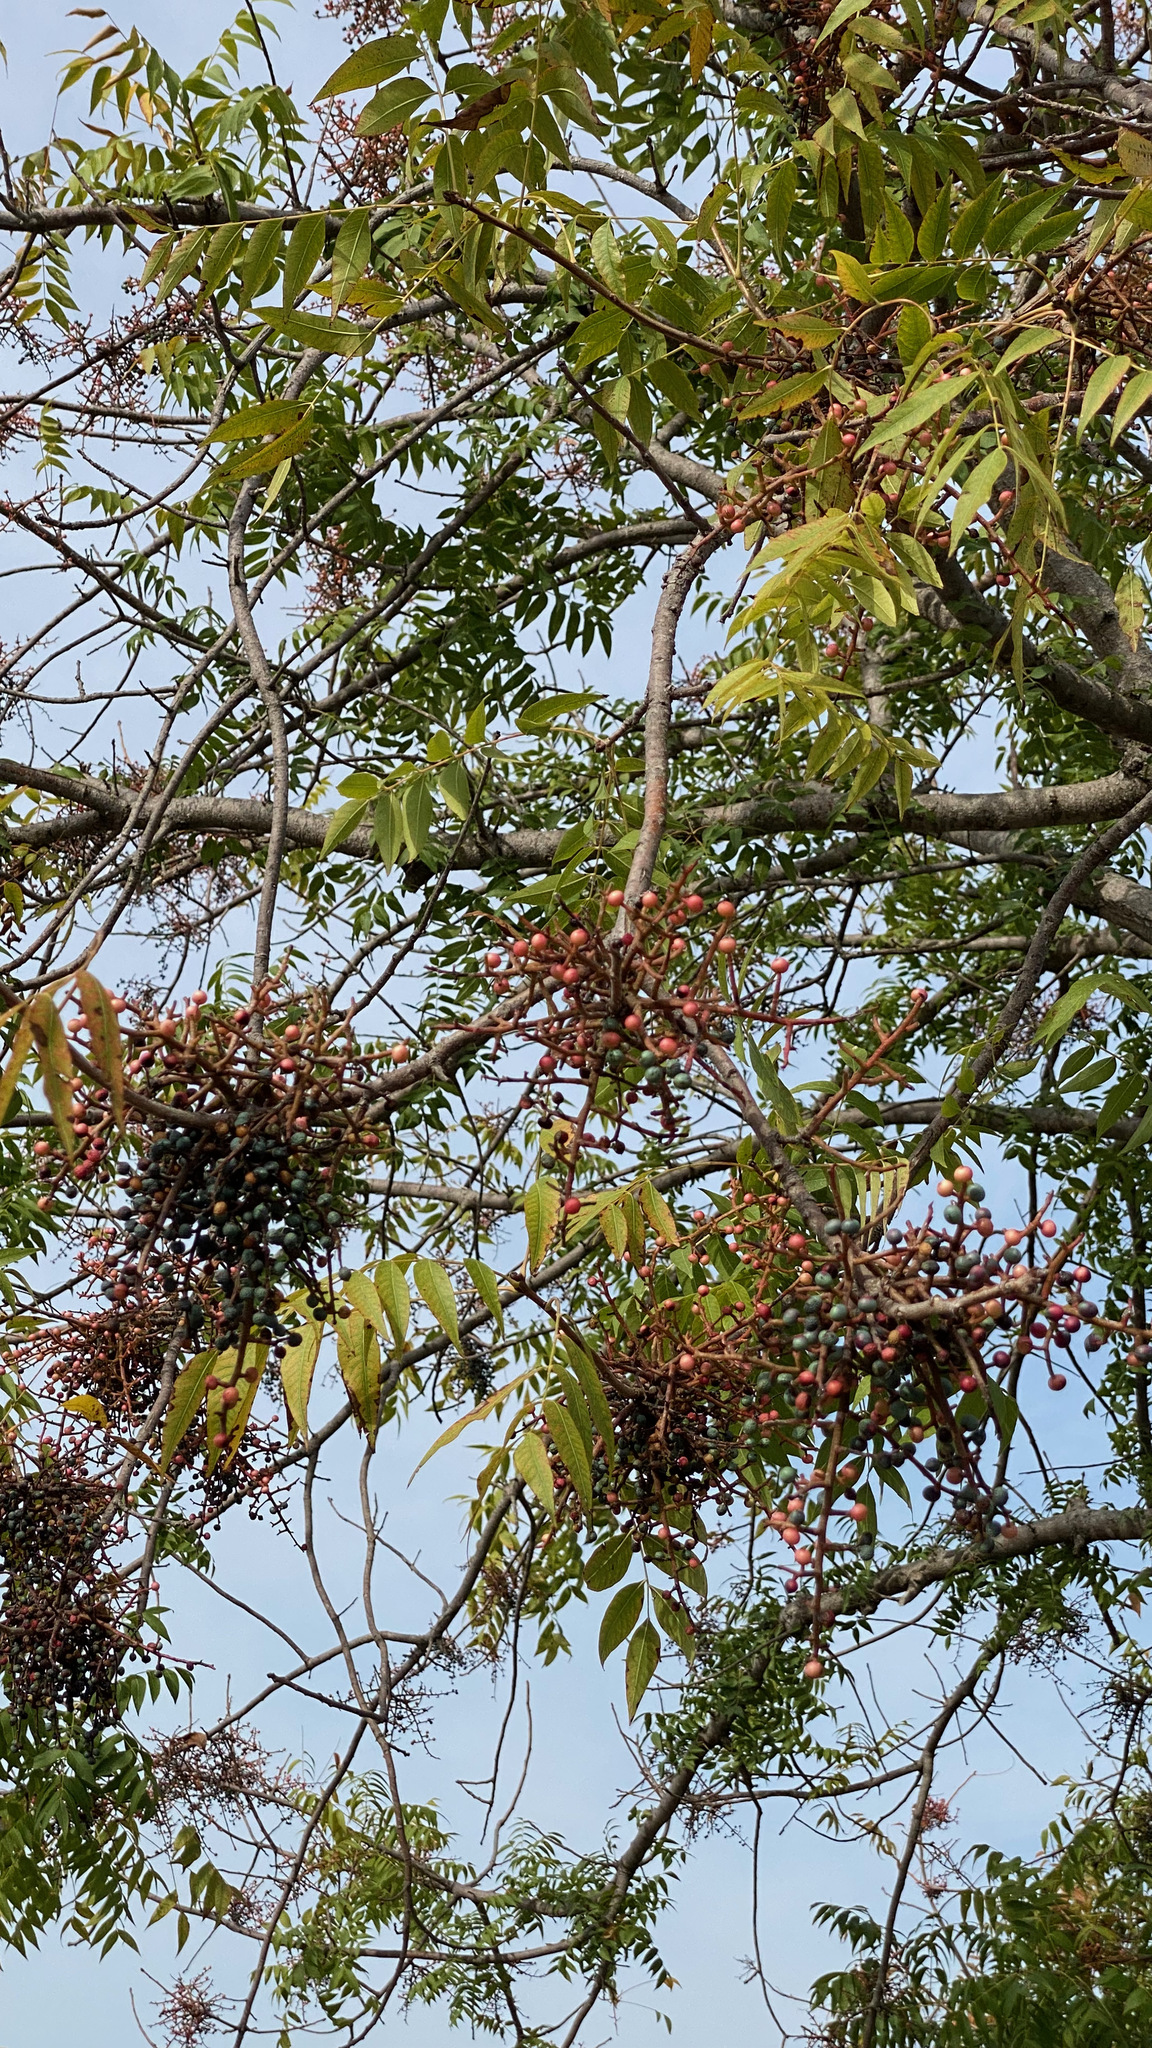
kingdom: Plantae
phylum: Tracheophyta
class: Magnoliopsida
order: Sapindales
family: Anacardiaceae
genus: Pistacia
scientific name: Pistacia chinensis
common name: Chinese pistache
